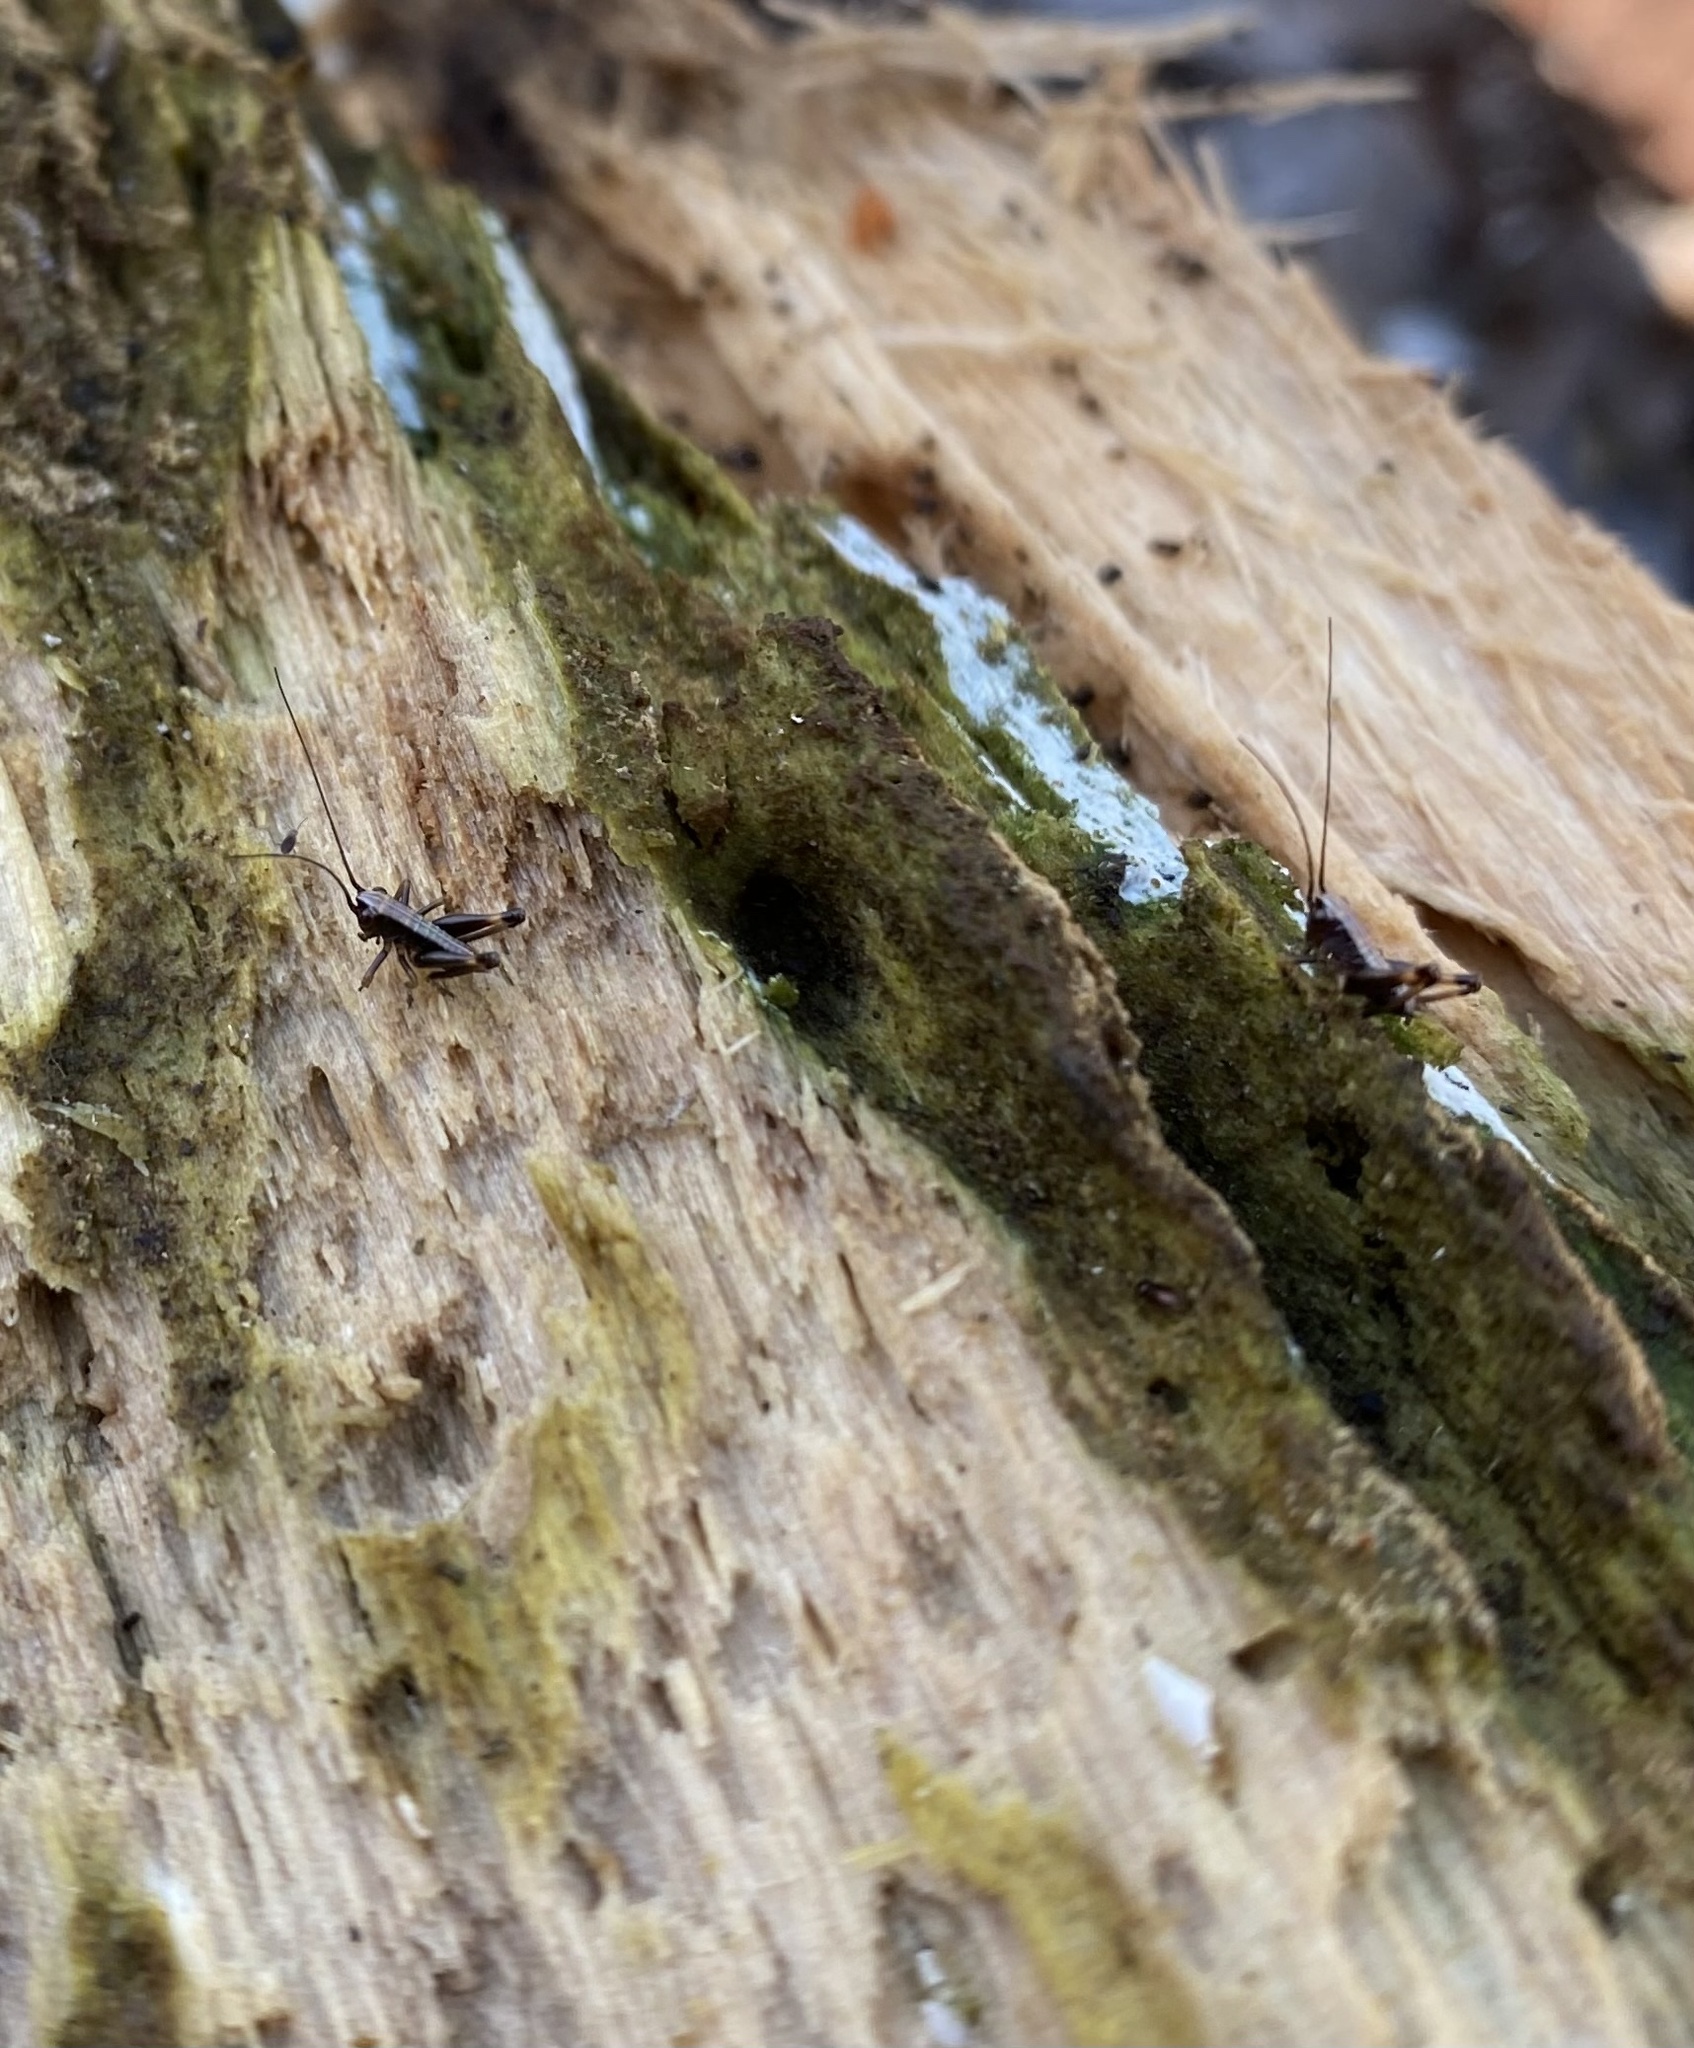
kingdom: Animalia
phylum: Arthropoda
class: Insecta
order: Orthoptera
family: Tettigoniidae
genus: Pholidoptera
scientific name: Pholidoptera griseoaptera
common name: Dark bush-cricket
